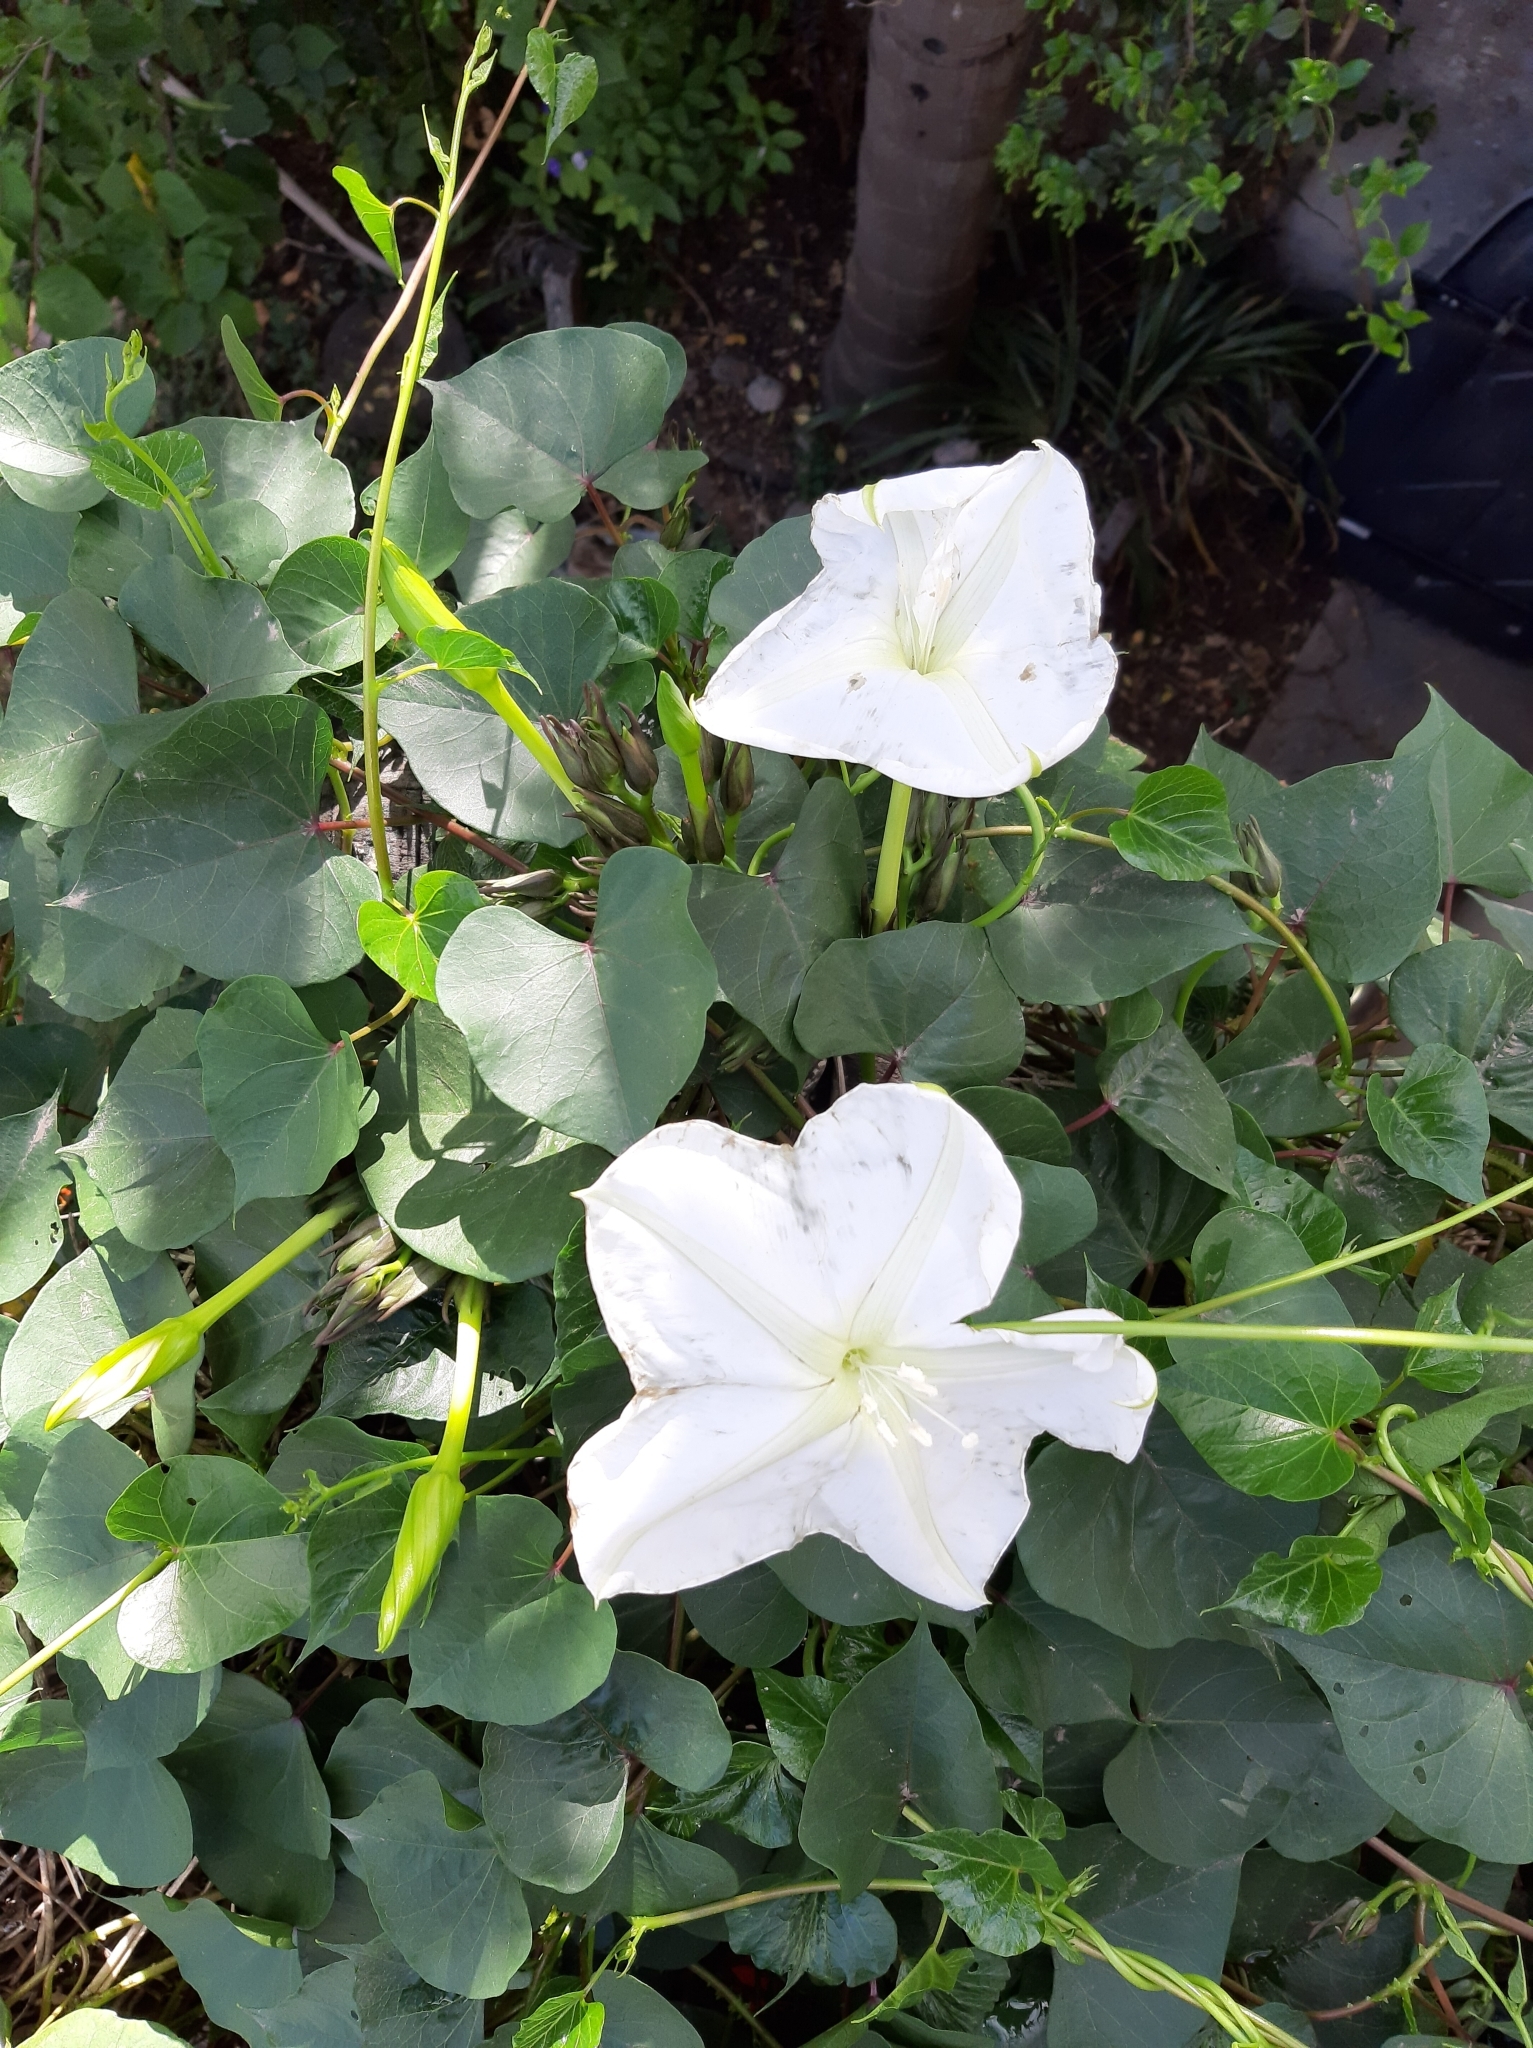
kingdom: Plantae
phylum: Tracheophyta
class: Magnoliopsida
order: Solanales
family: Convolvulaceae
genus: Ipomoea
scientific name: Ipomoea alba
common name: Moonflower
